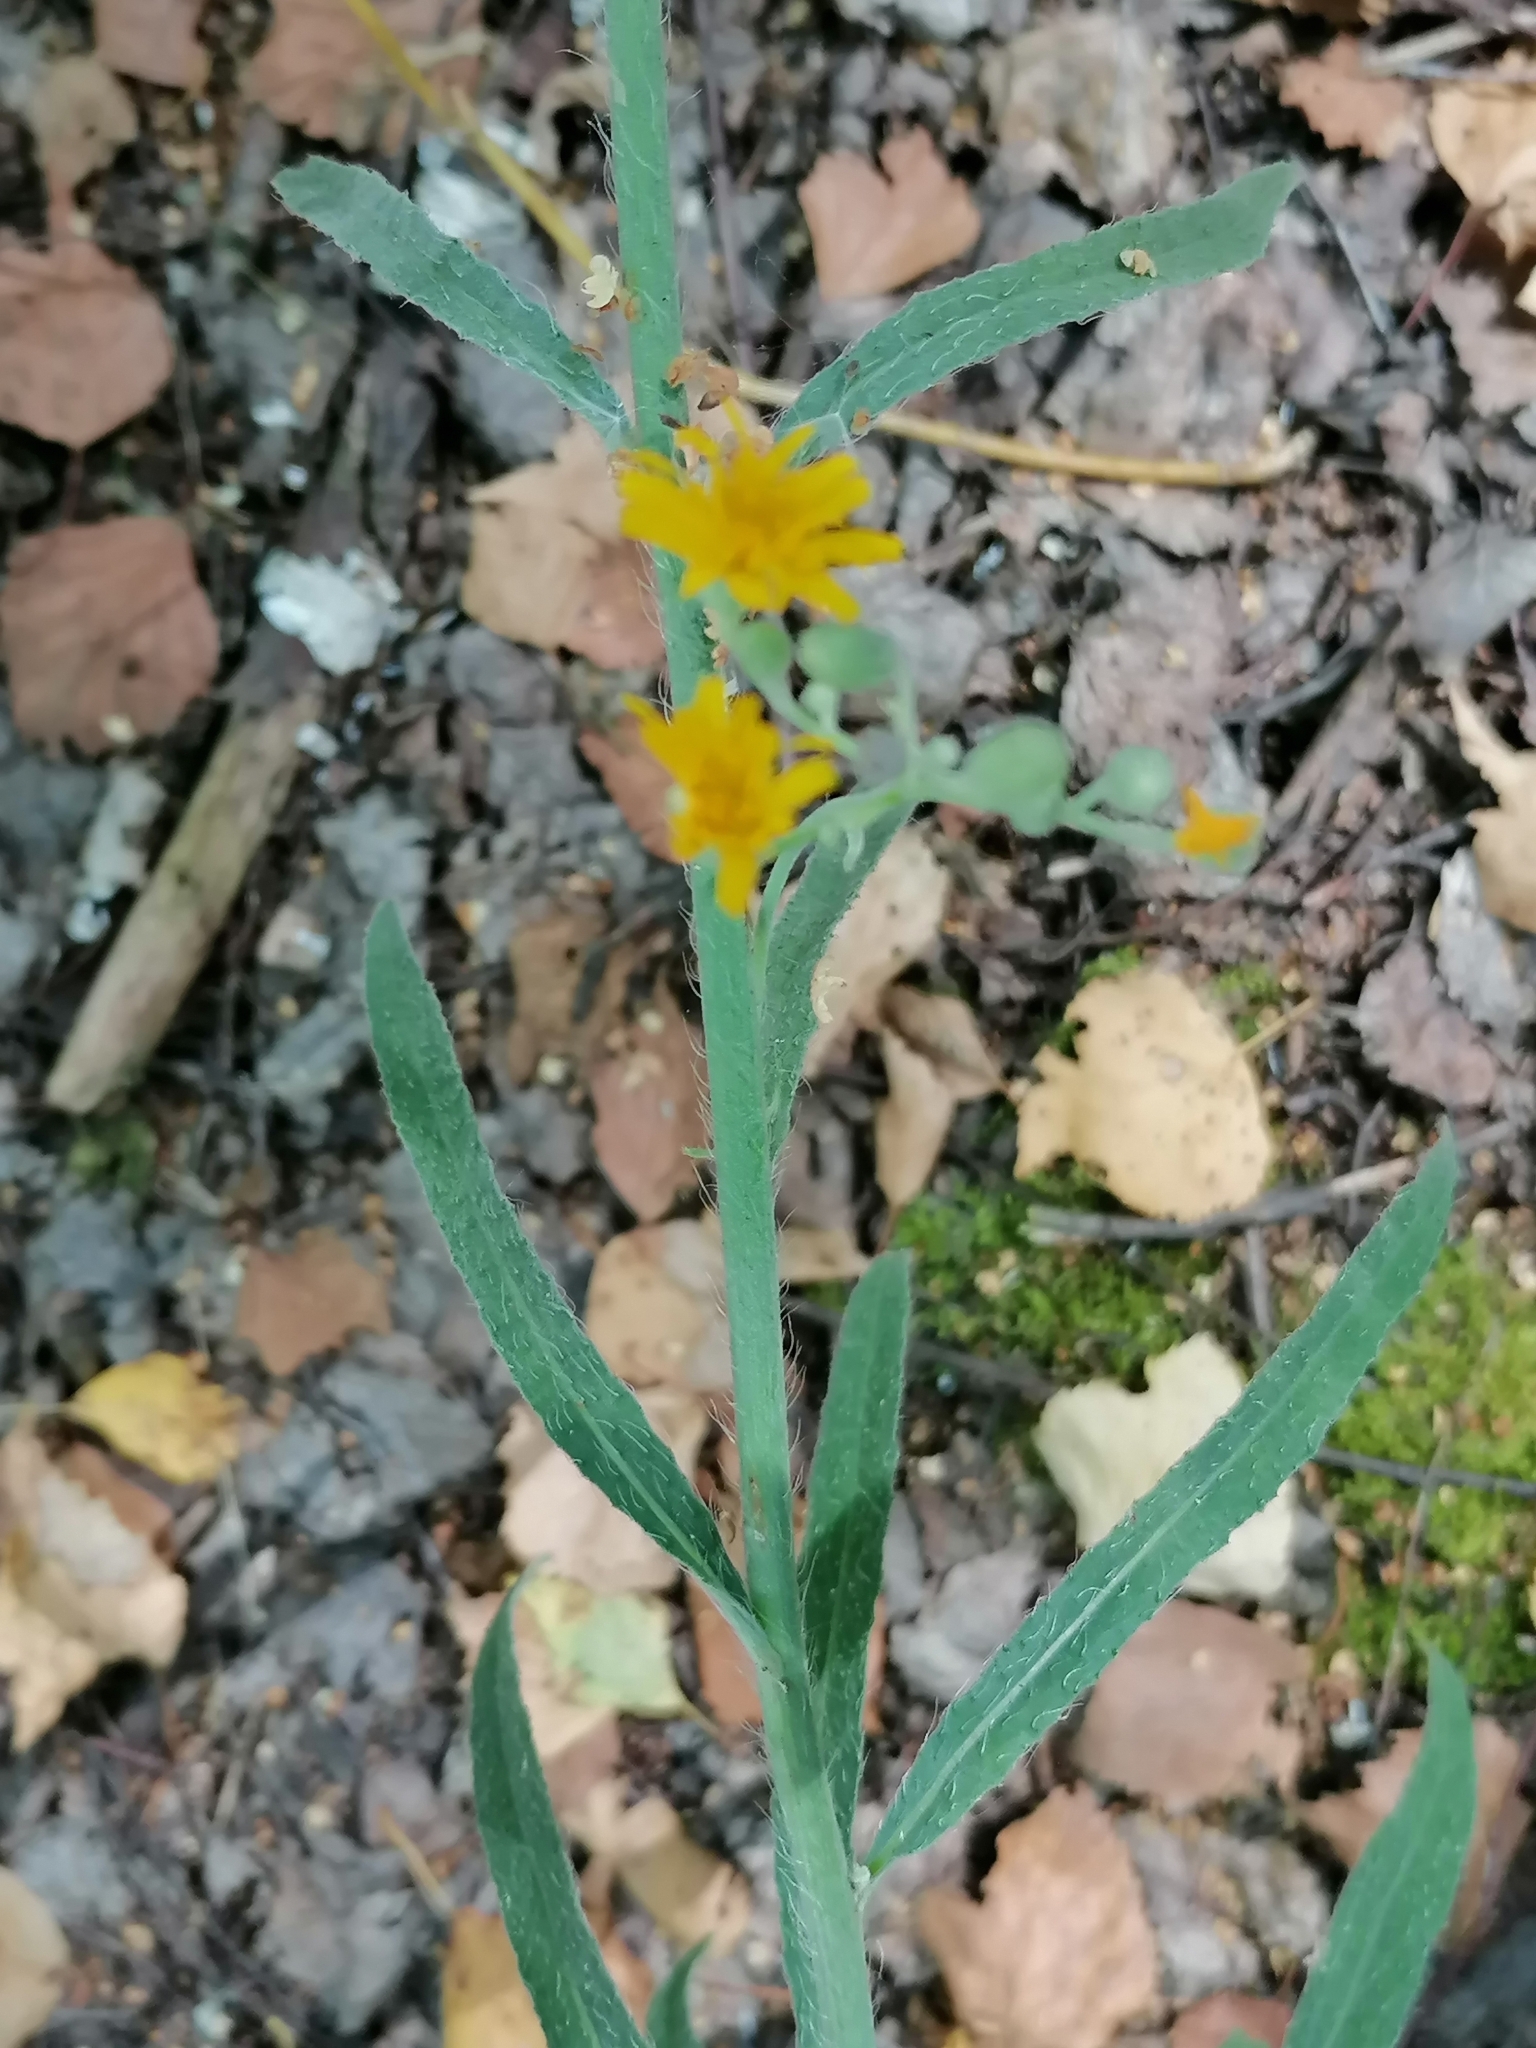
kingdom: Plantae
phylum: Tracheophyta
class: Magnoliopsida
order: Asterales
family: Asteraceae
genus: Pilosella
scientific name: Pilosella echioides
